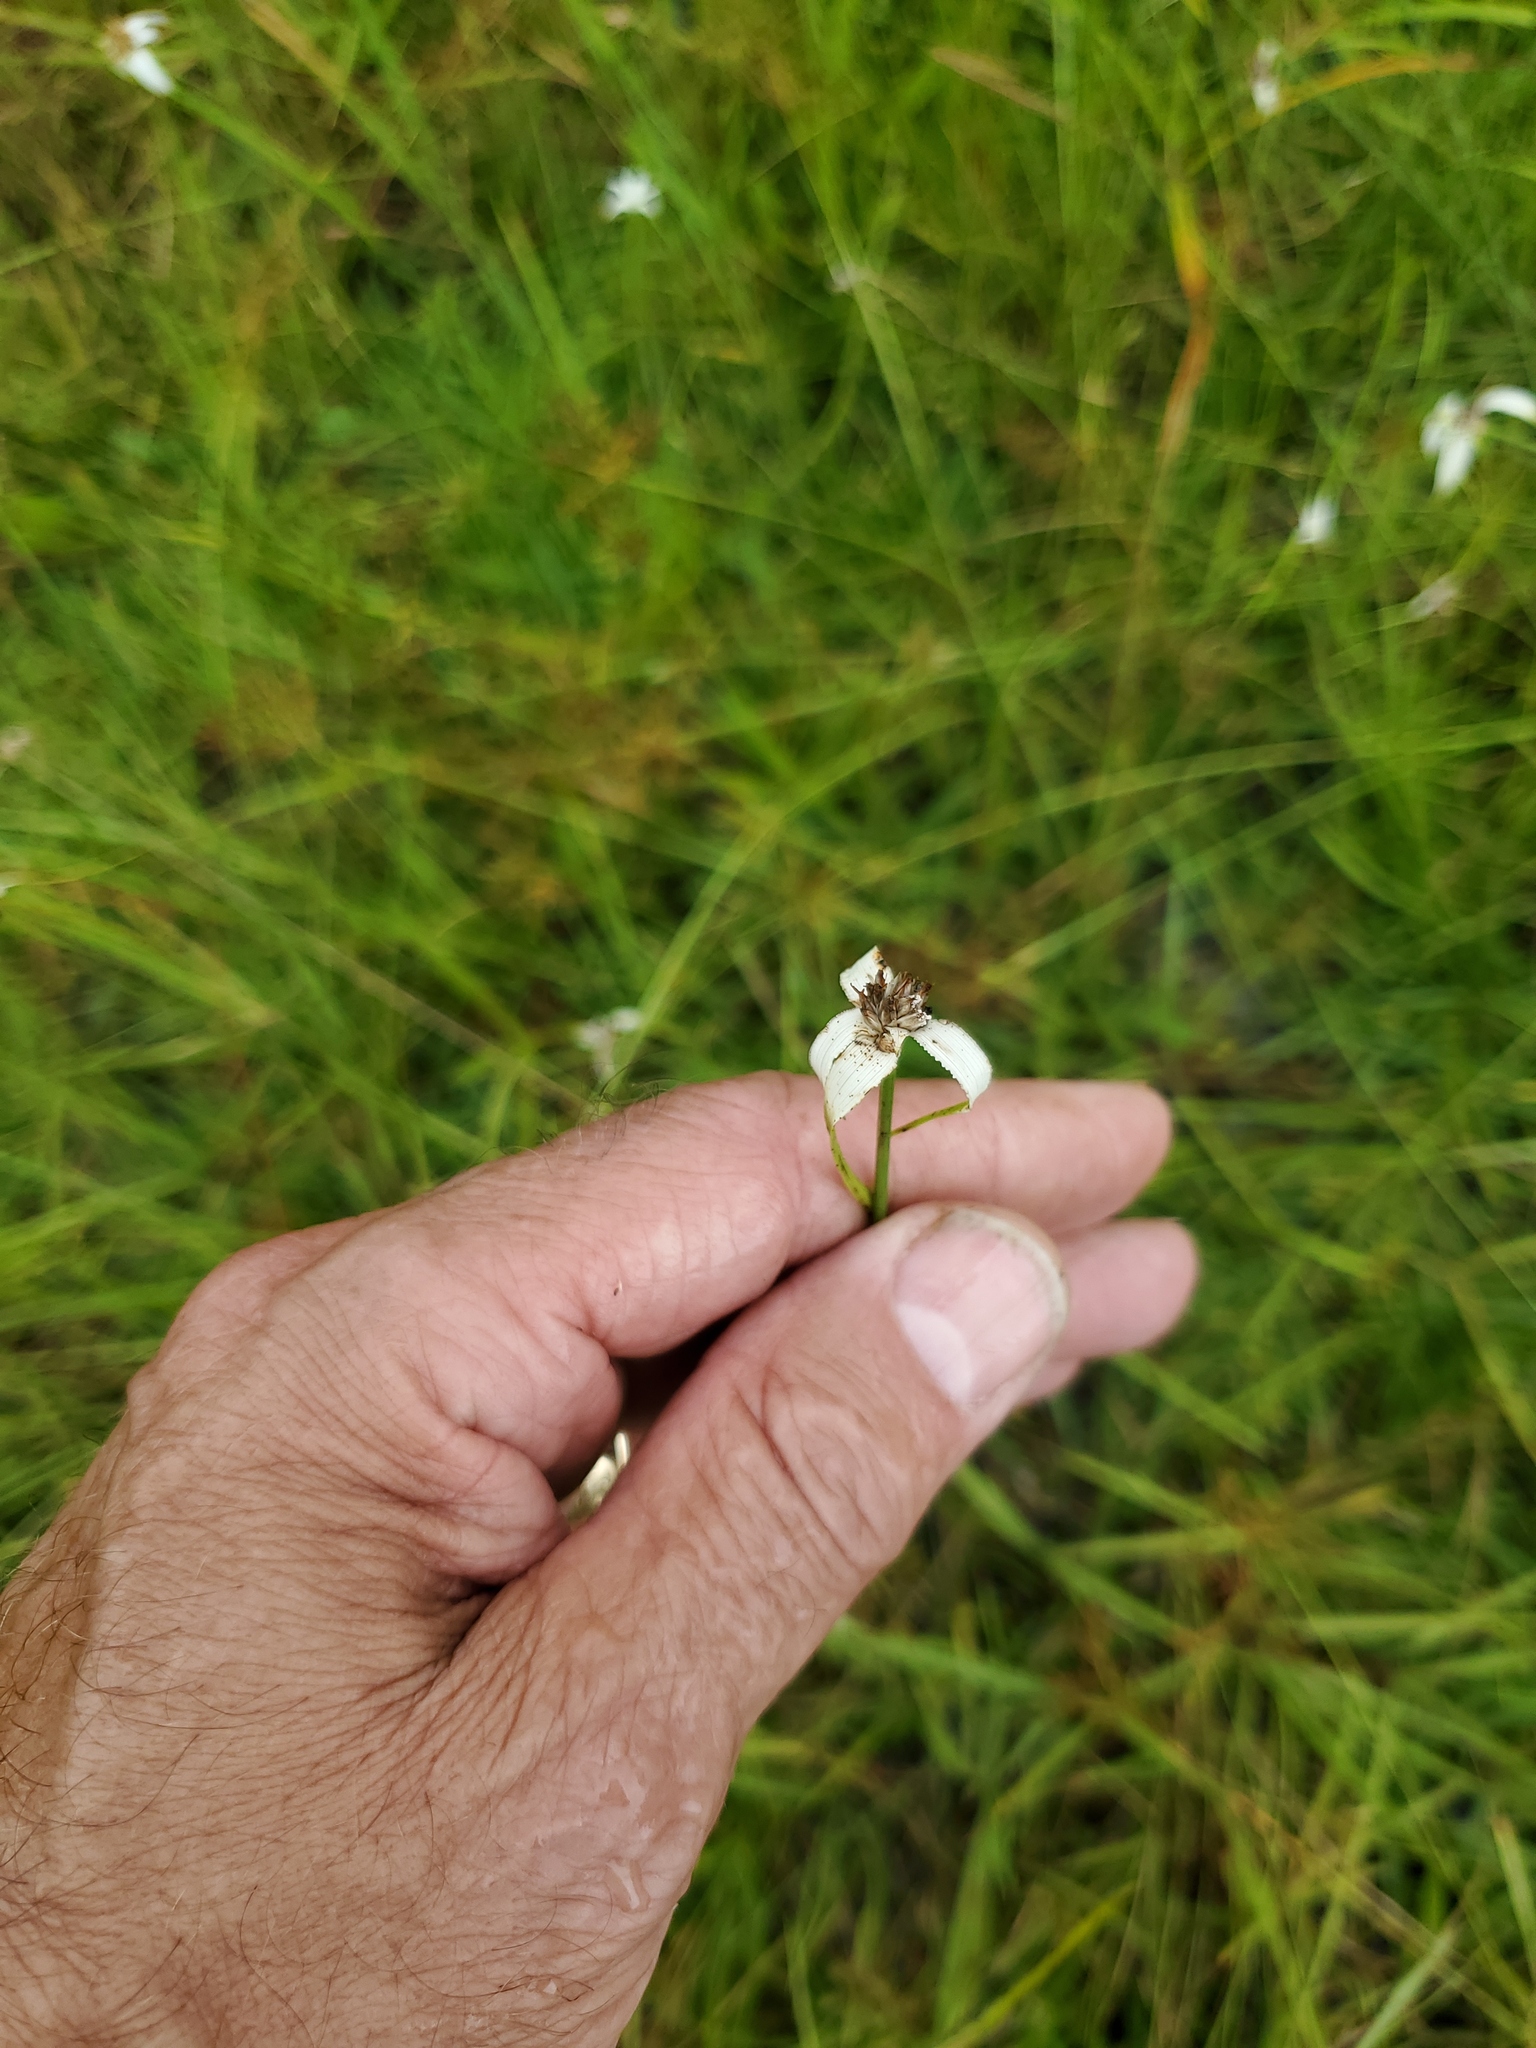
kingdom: Plantae
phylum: Tracheophyta
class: Liliopsida
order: Poales
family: Cyperaceae
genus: Rhynchospora
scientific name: Rhynchospora colorata
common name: Star sedge
